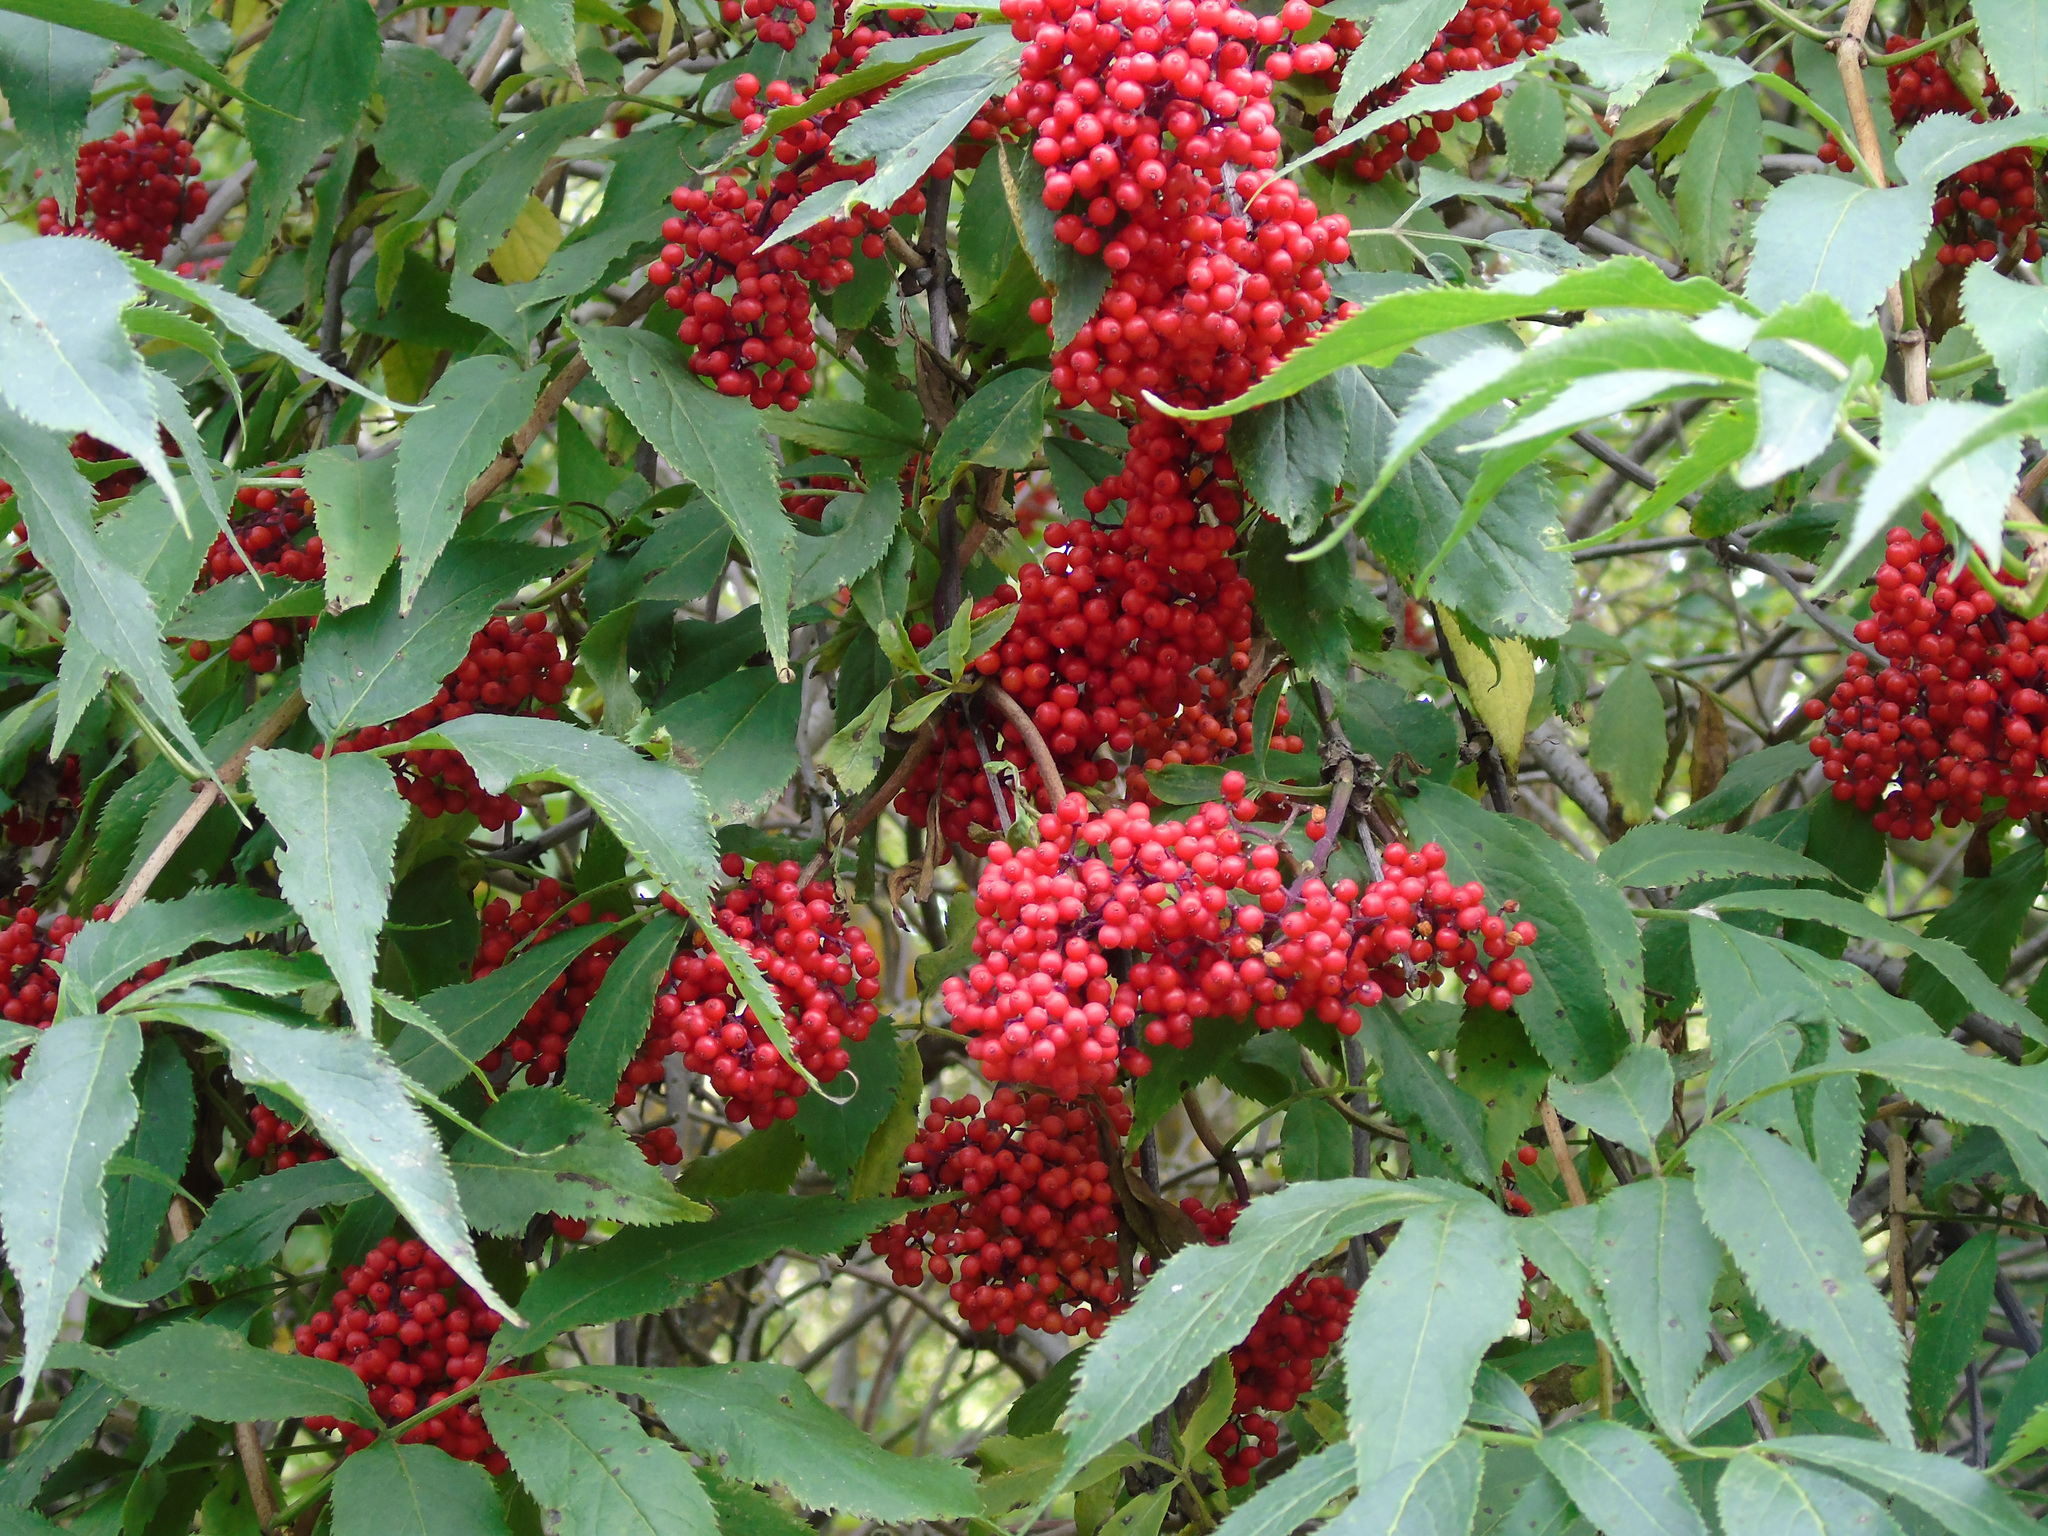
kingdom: Plantae
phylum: Tracheophyta
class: Magnoliopsida
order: Dipsacales
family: Viburnaceae
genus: Sambucus
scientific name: Sambucus racemosa
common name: Red-berried elder
